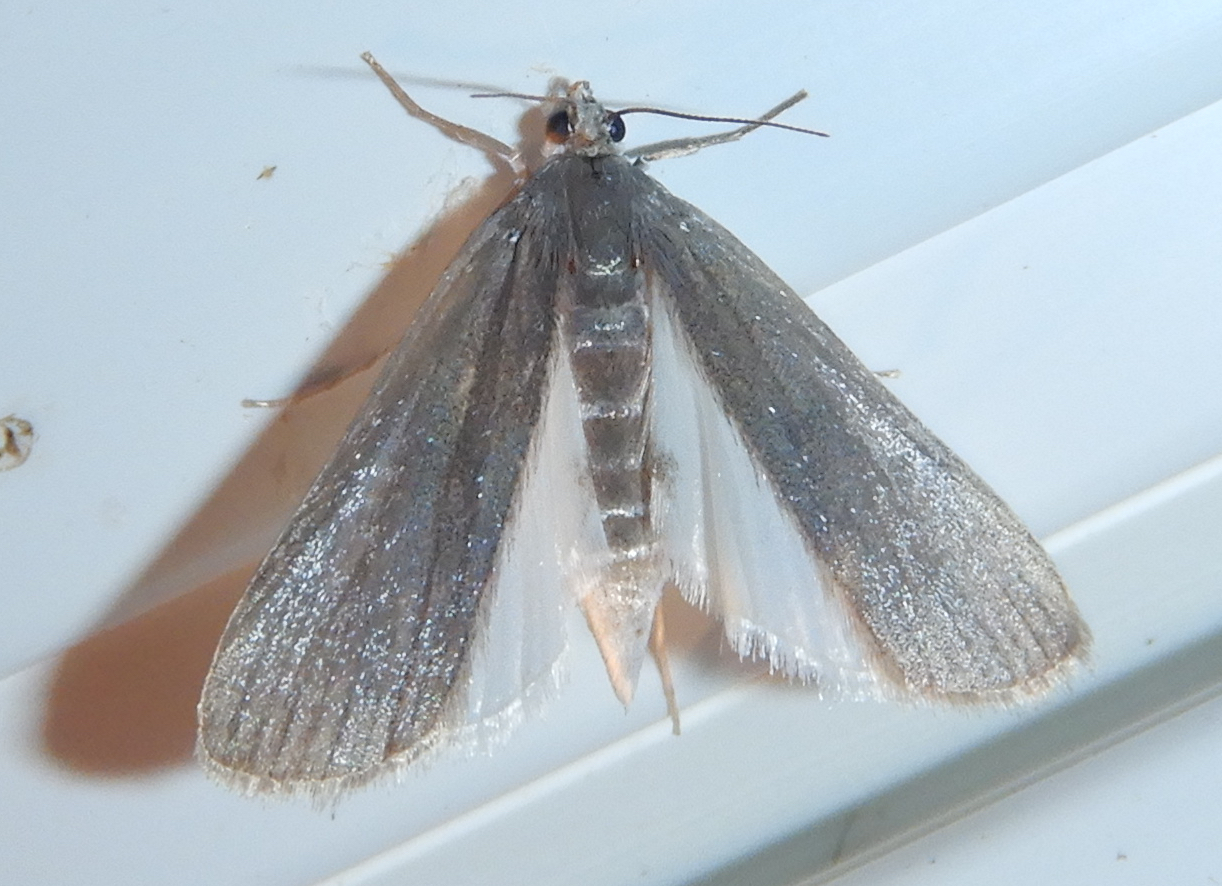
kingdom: Animalia
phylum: Arthropoda
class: Insecta
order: Lepidoptera
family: Crambidae
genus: Parapoynx
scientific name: Parapoynx maculalis
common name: Polymorphic pondweed moth
